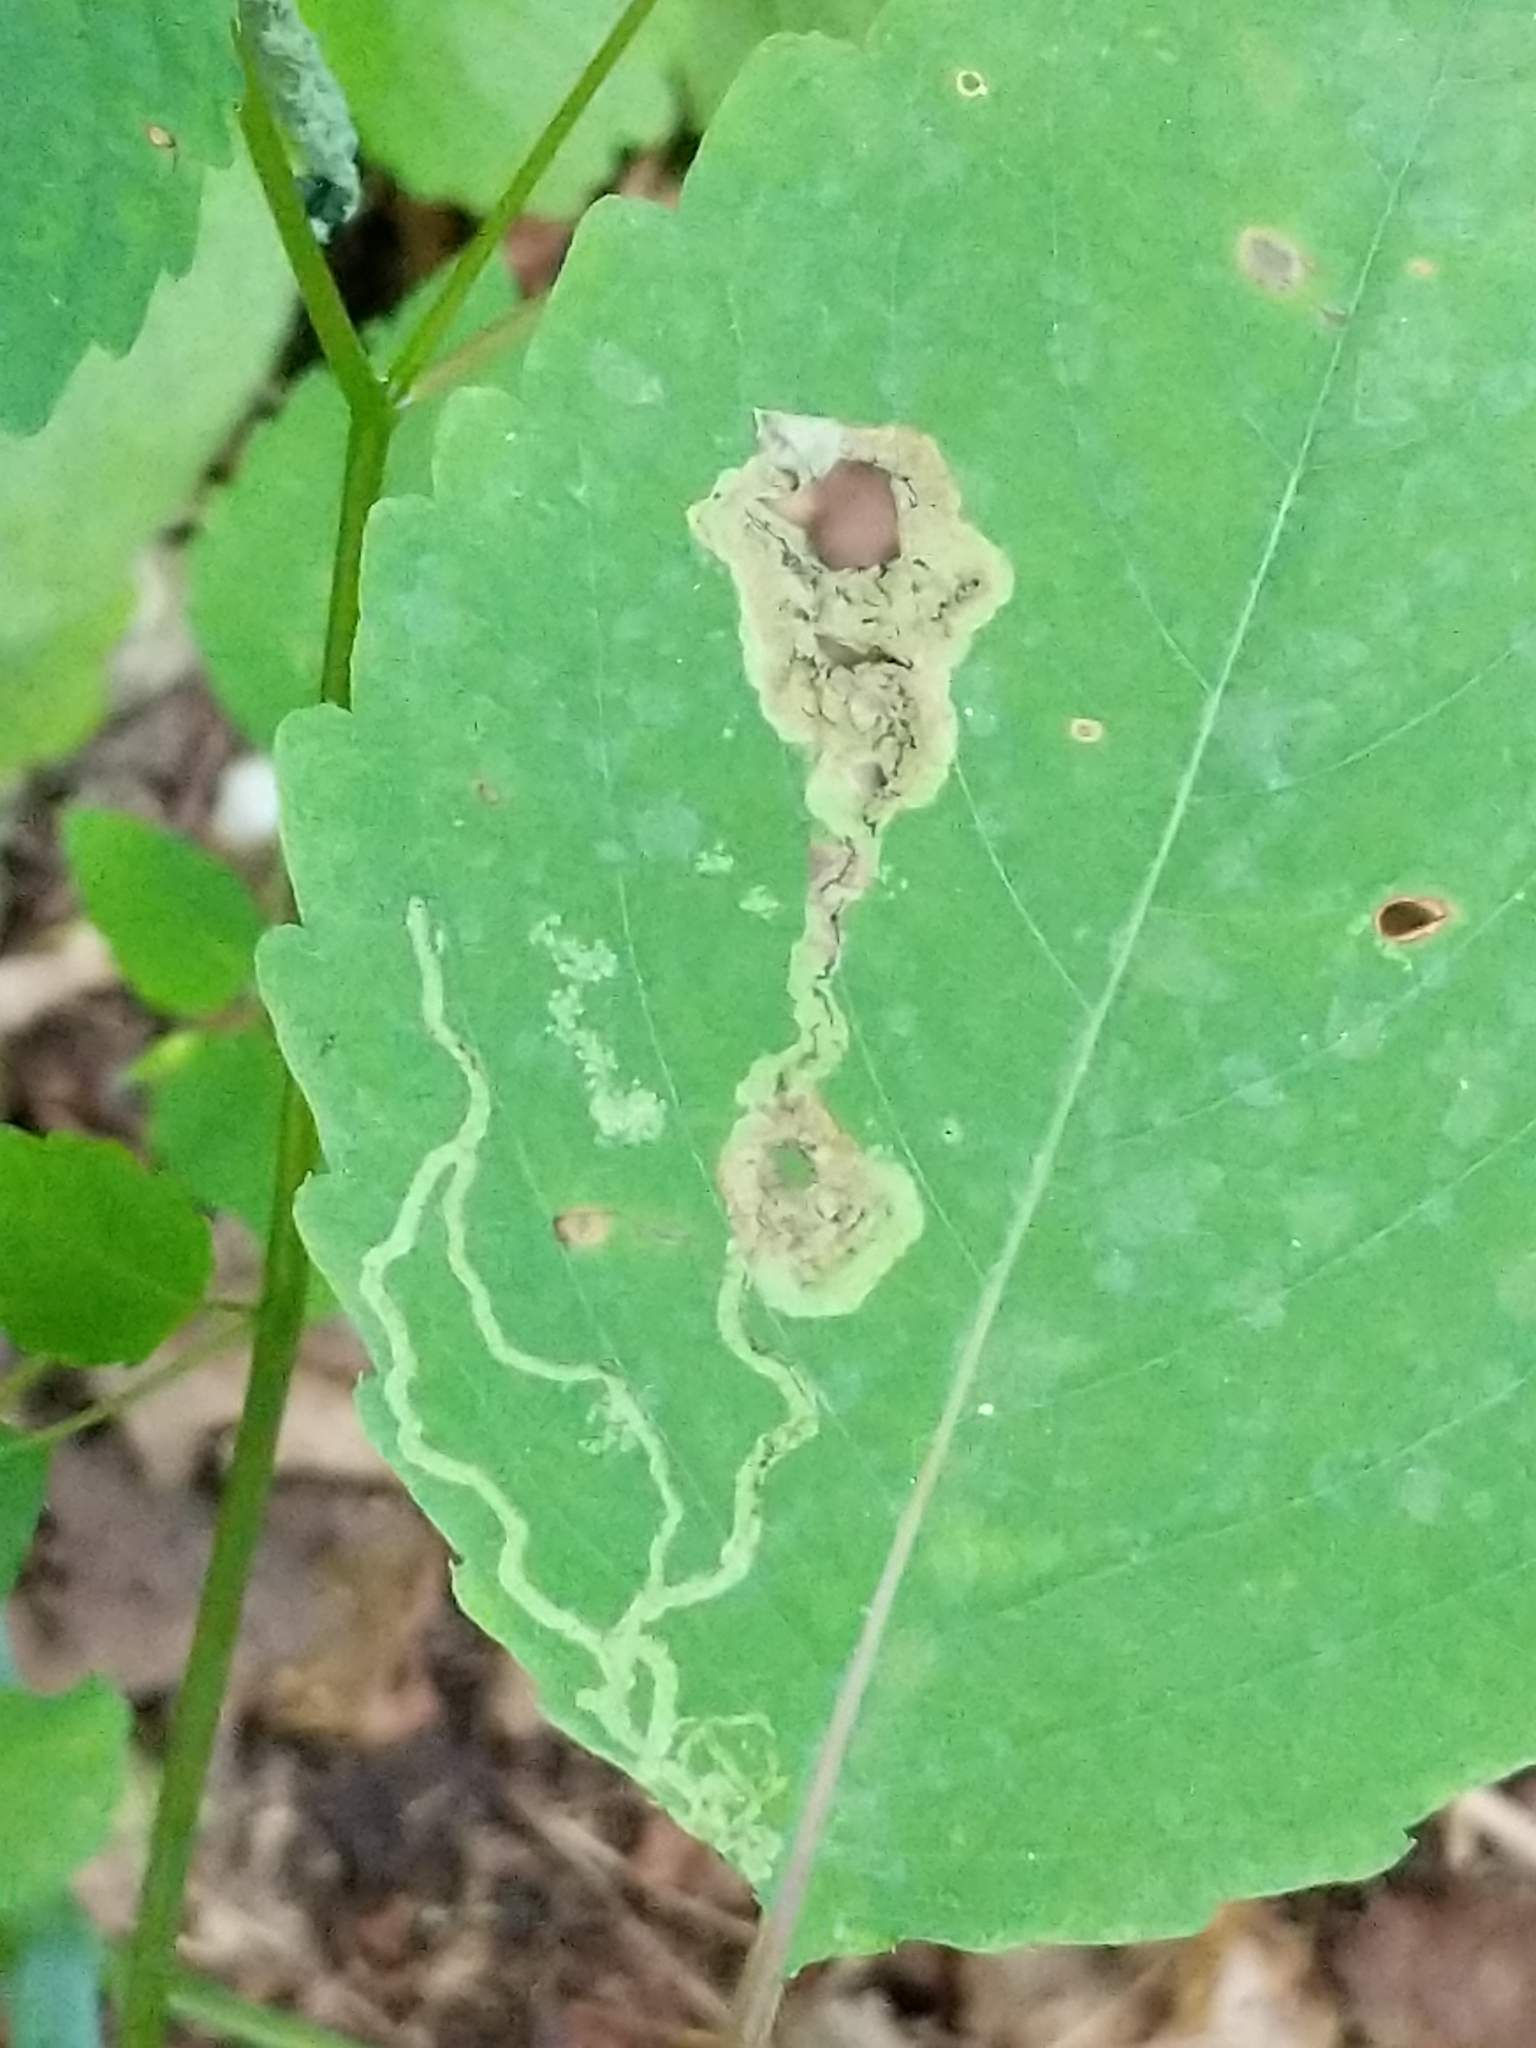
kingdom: Animalia
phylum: Arthropoda
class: Insecta
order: Diptera
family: Agromyzidae
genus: Phytoliriomyza
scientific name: Phytoliriomyza melampyga
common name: Jewelweed leaf-miner fly
